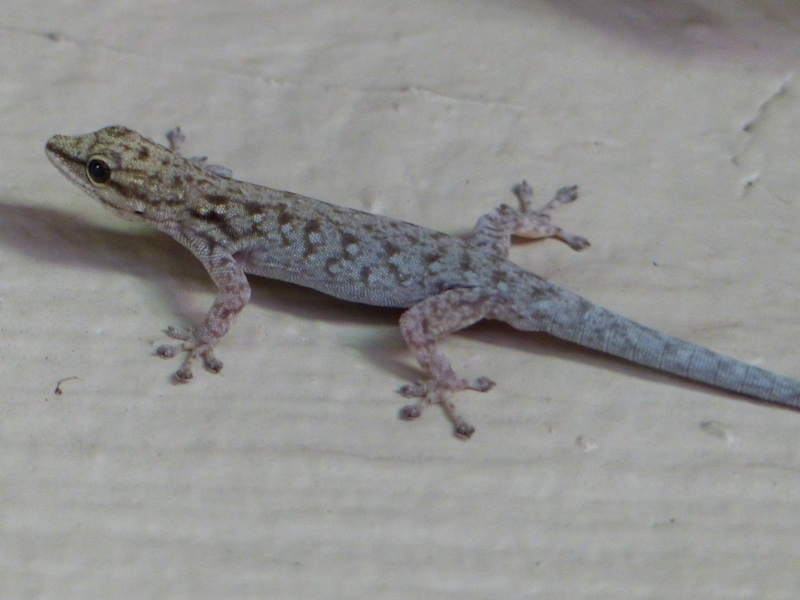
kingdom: Animalia
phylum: Chordata
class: Squamata
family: Gekkonidae
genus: Lygodactylus
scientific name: Lygodactylus chobiensis
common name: Okavango dwarf gecko
